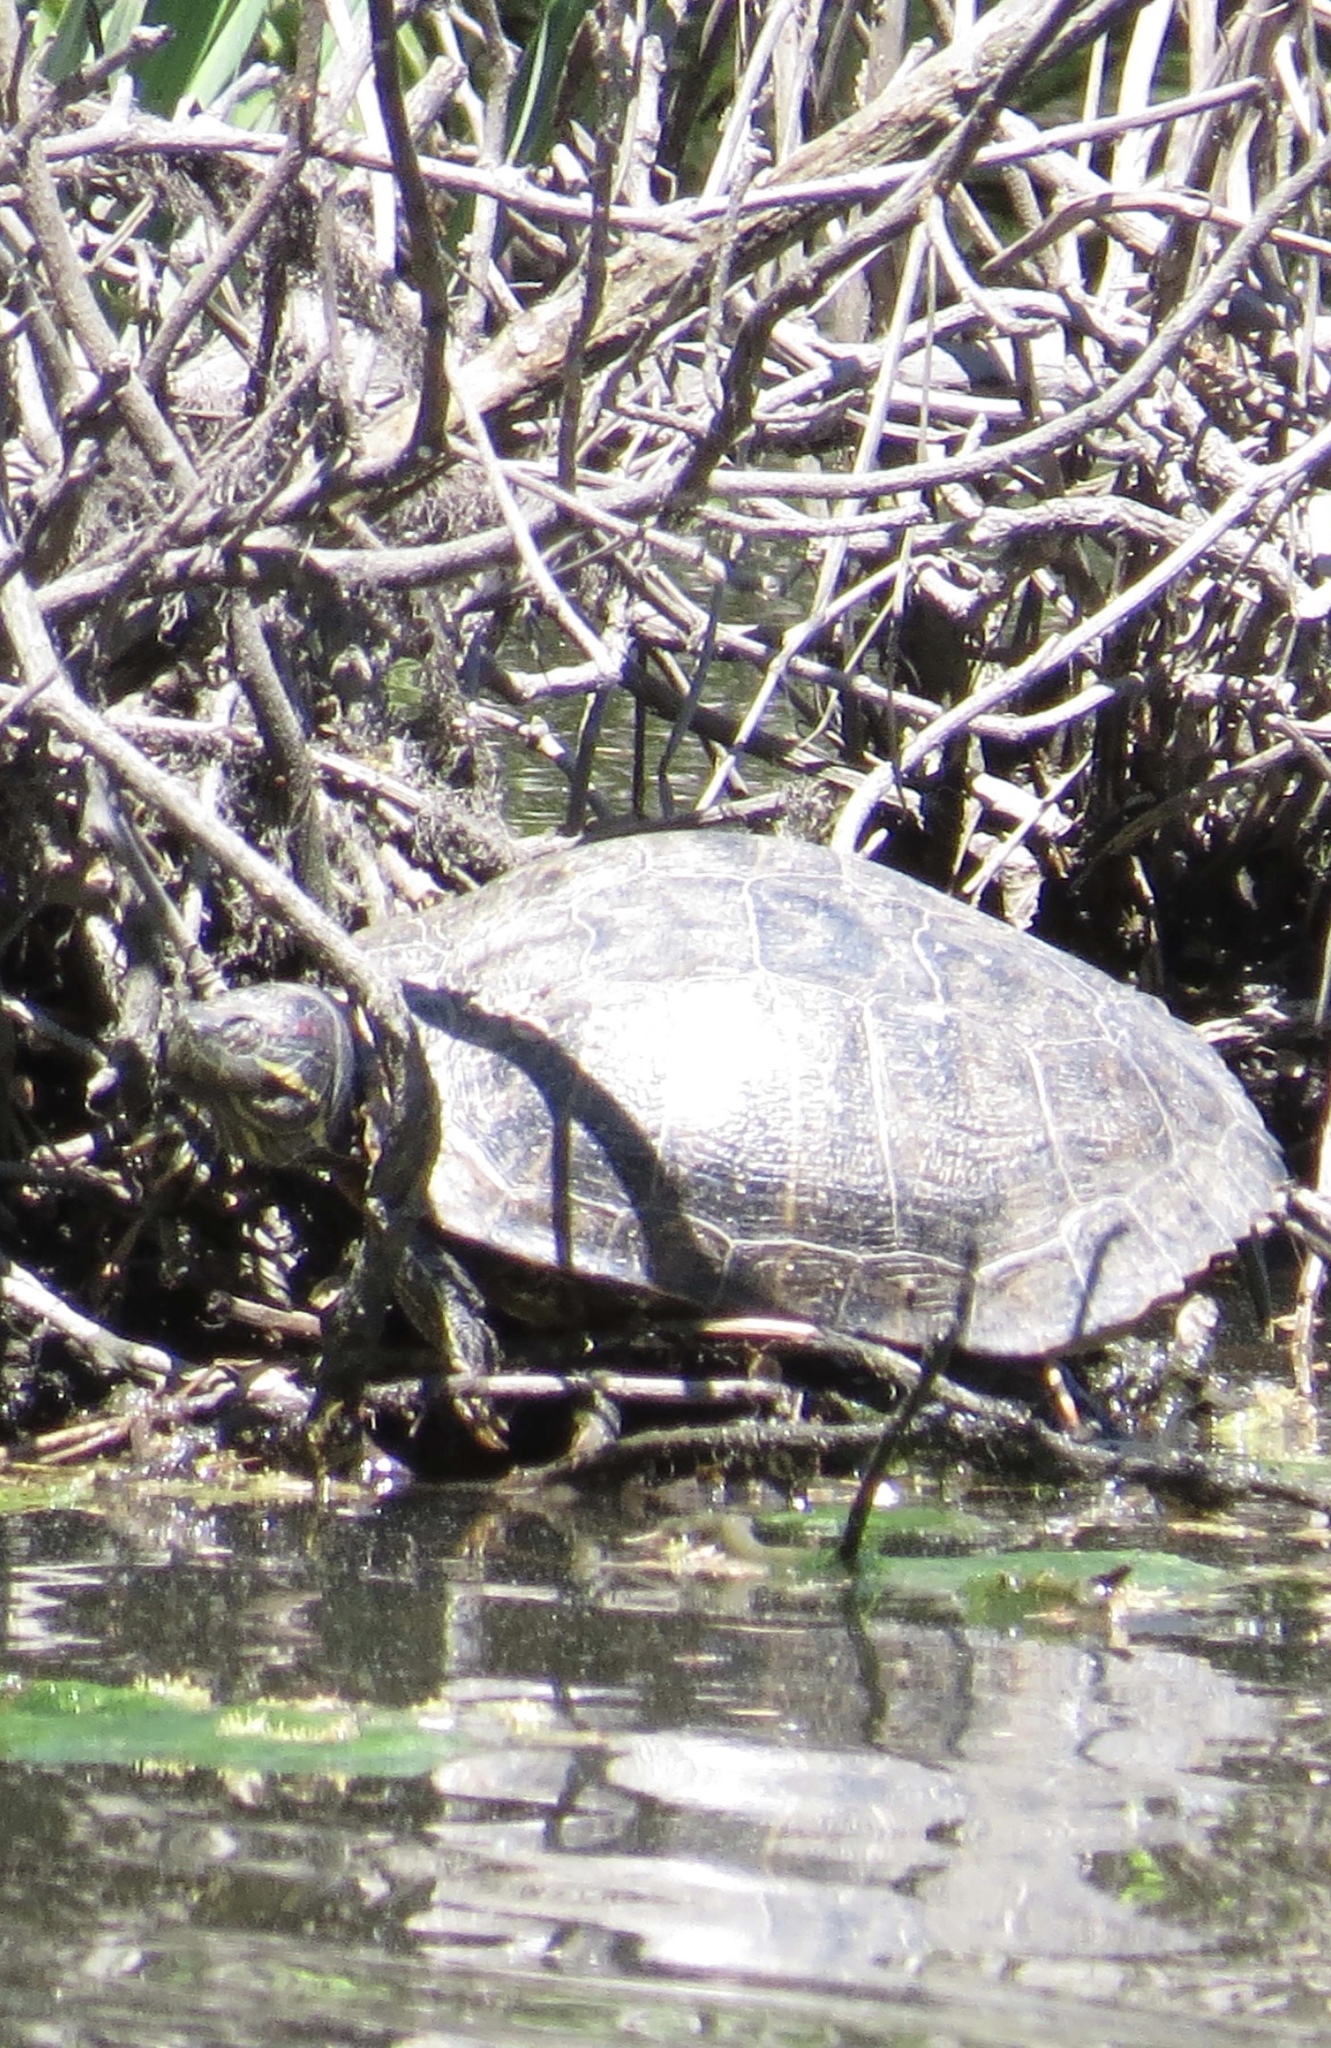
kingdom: Animalia
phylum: Chordata
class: Testudines
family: Emydidae
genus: Trachemys
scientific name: Trachemys scripta
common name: Slider
